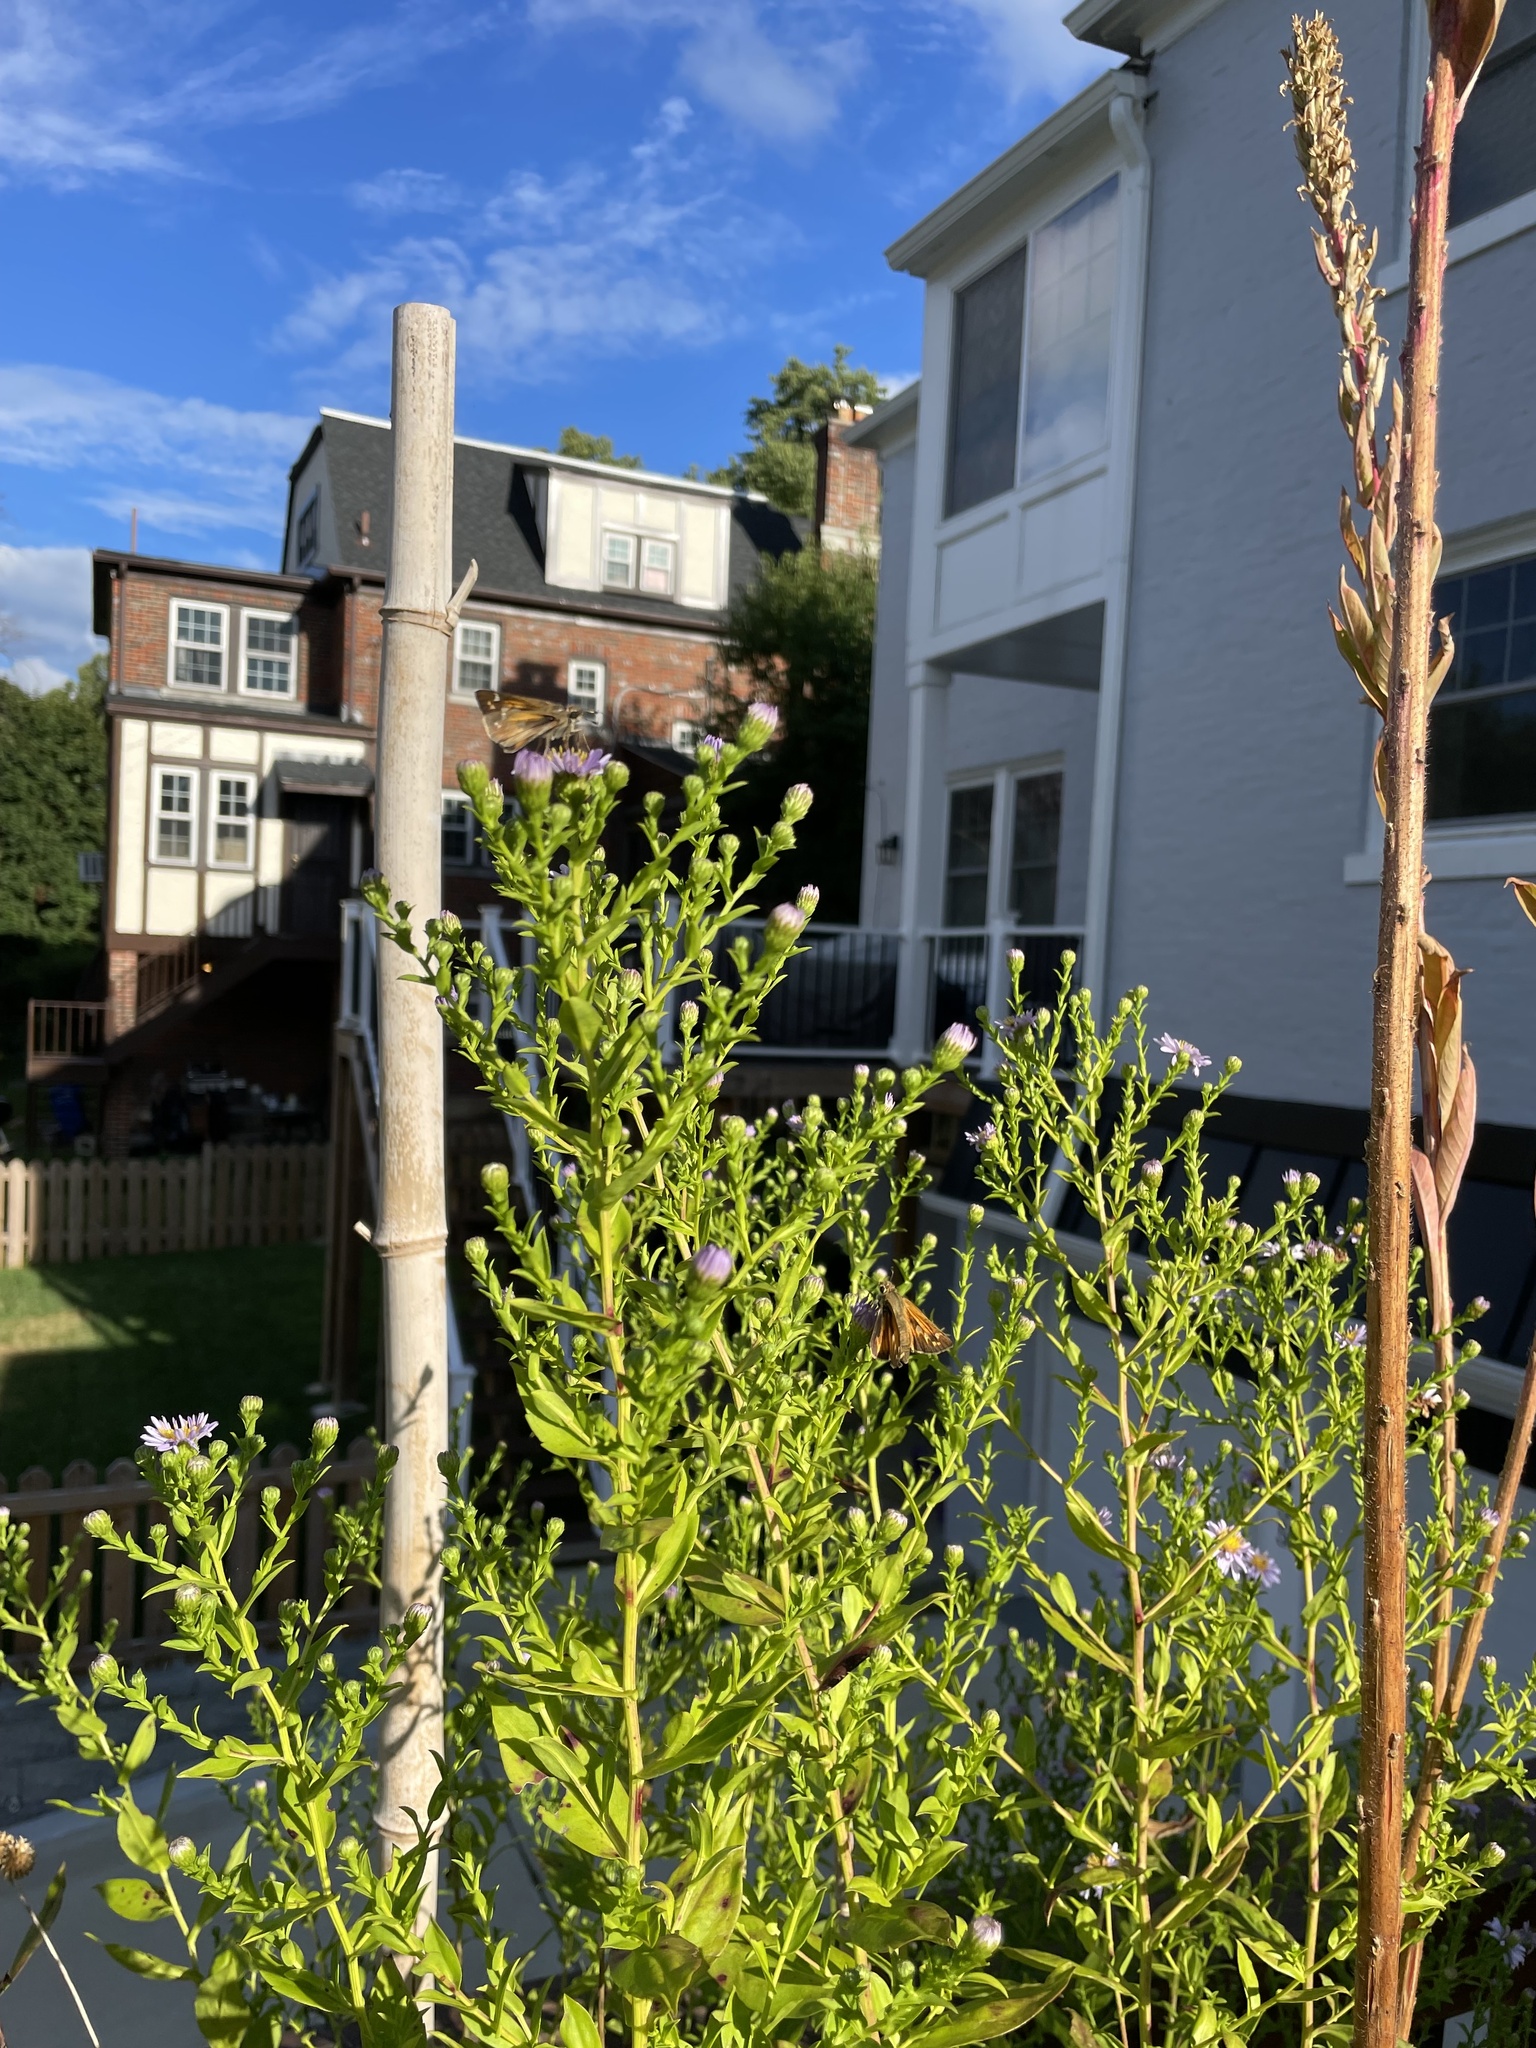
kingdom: Animalia
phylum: Arthropoda
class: Insecta
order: Lepidoptera
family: Hesperiidae
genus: Atalopedes
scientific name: Atalopedes
